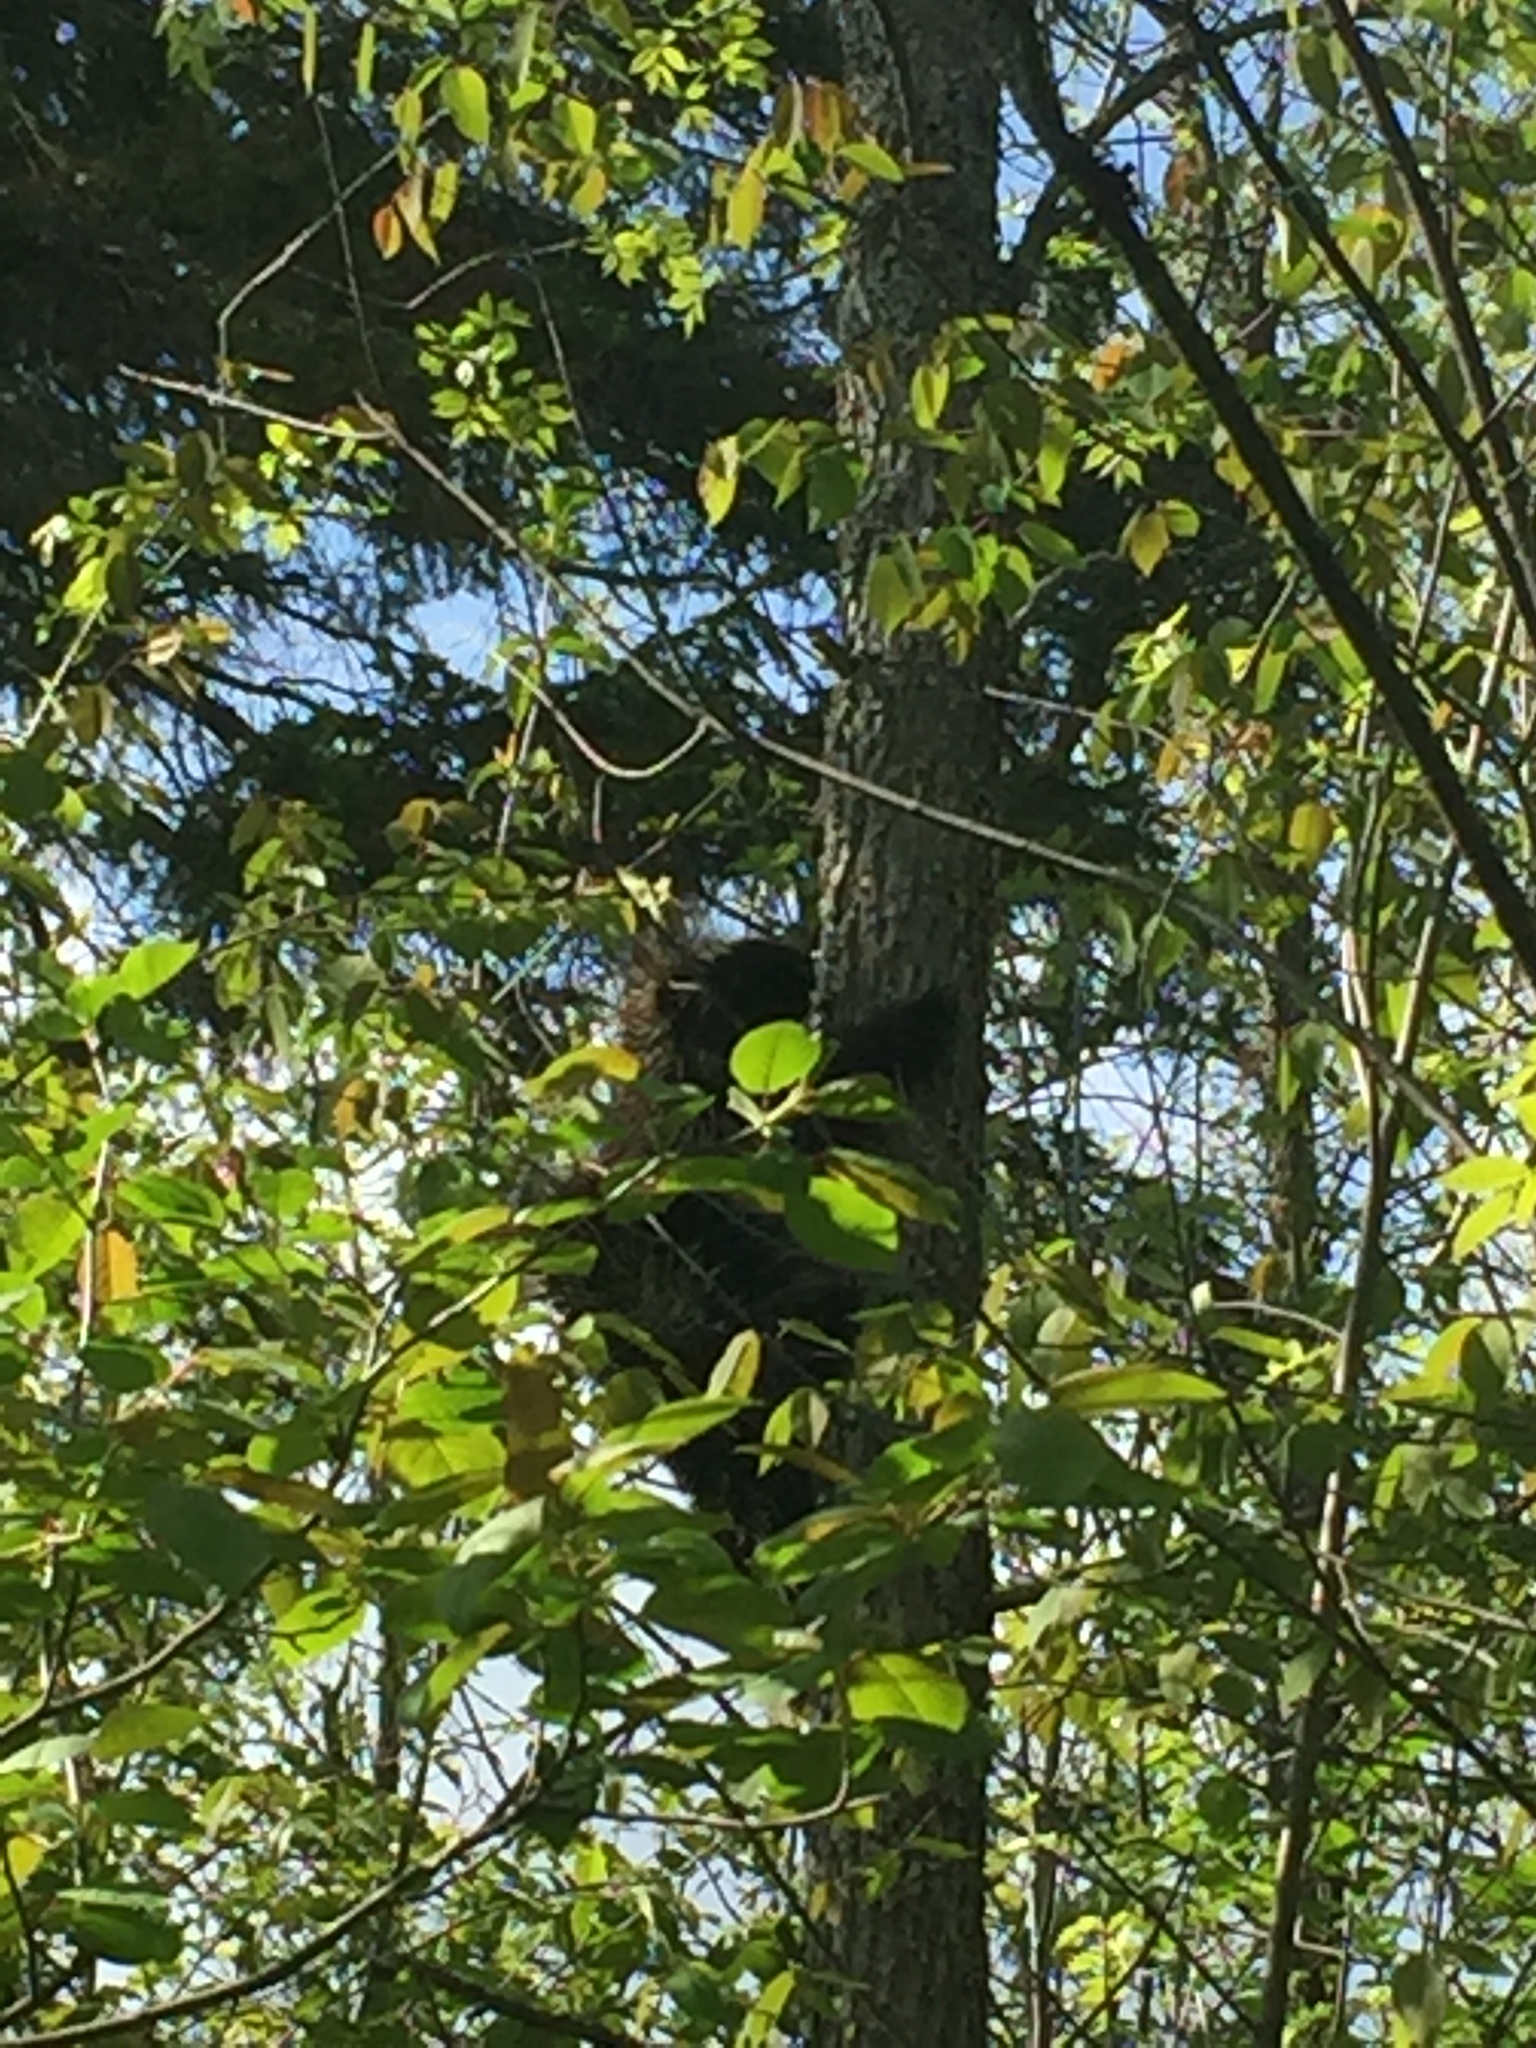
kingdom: Animalia
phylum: Chordata
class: Mammalia
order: Rodentia
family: Erethizontidae
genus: Erethizon
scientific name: Erethizon dorsatus
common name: North american porcupine
